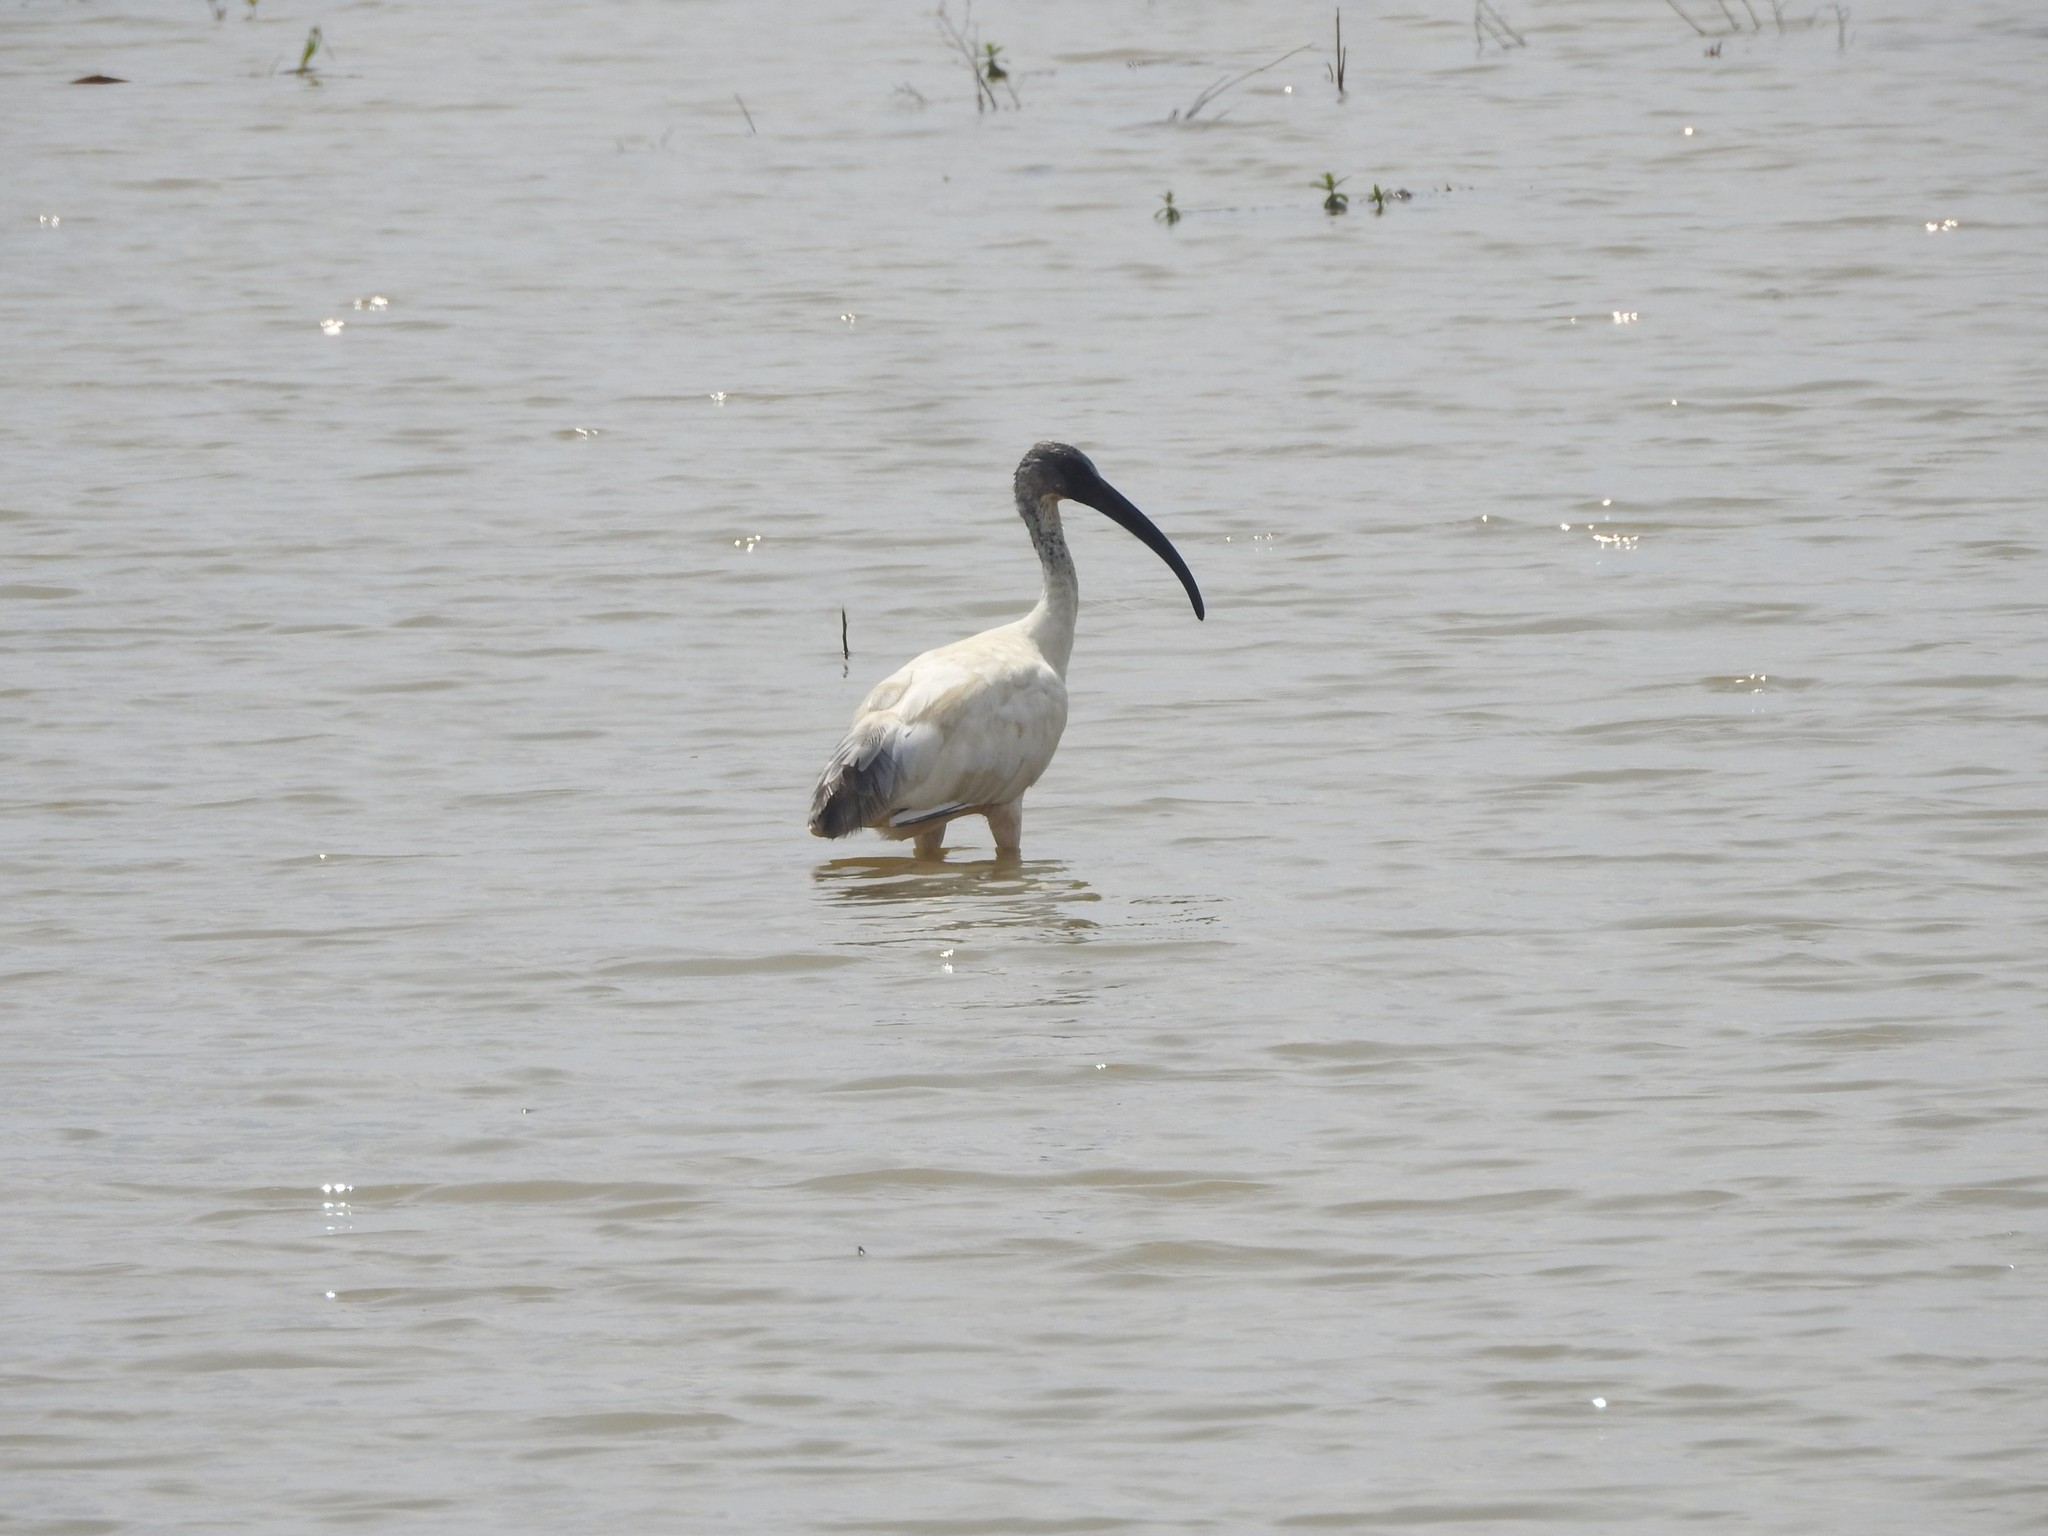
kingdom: Animalia
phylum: Chordata
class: Aves
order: Pelecaniformes
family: Threskiornithidae
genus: Threskiornis
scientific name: Threskiornis melanocephalus
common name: Black-headed ibis
